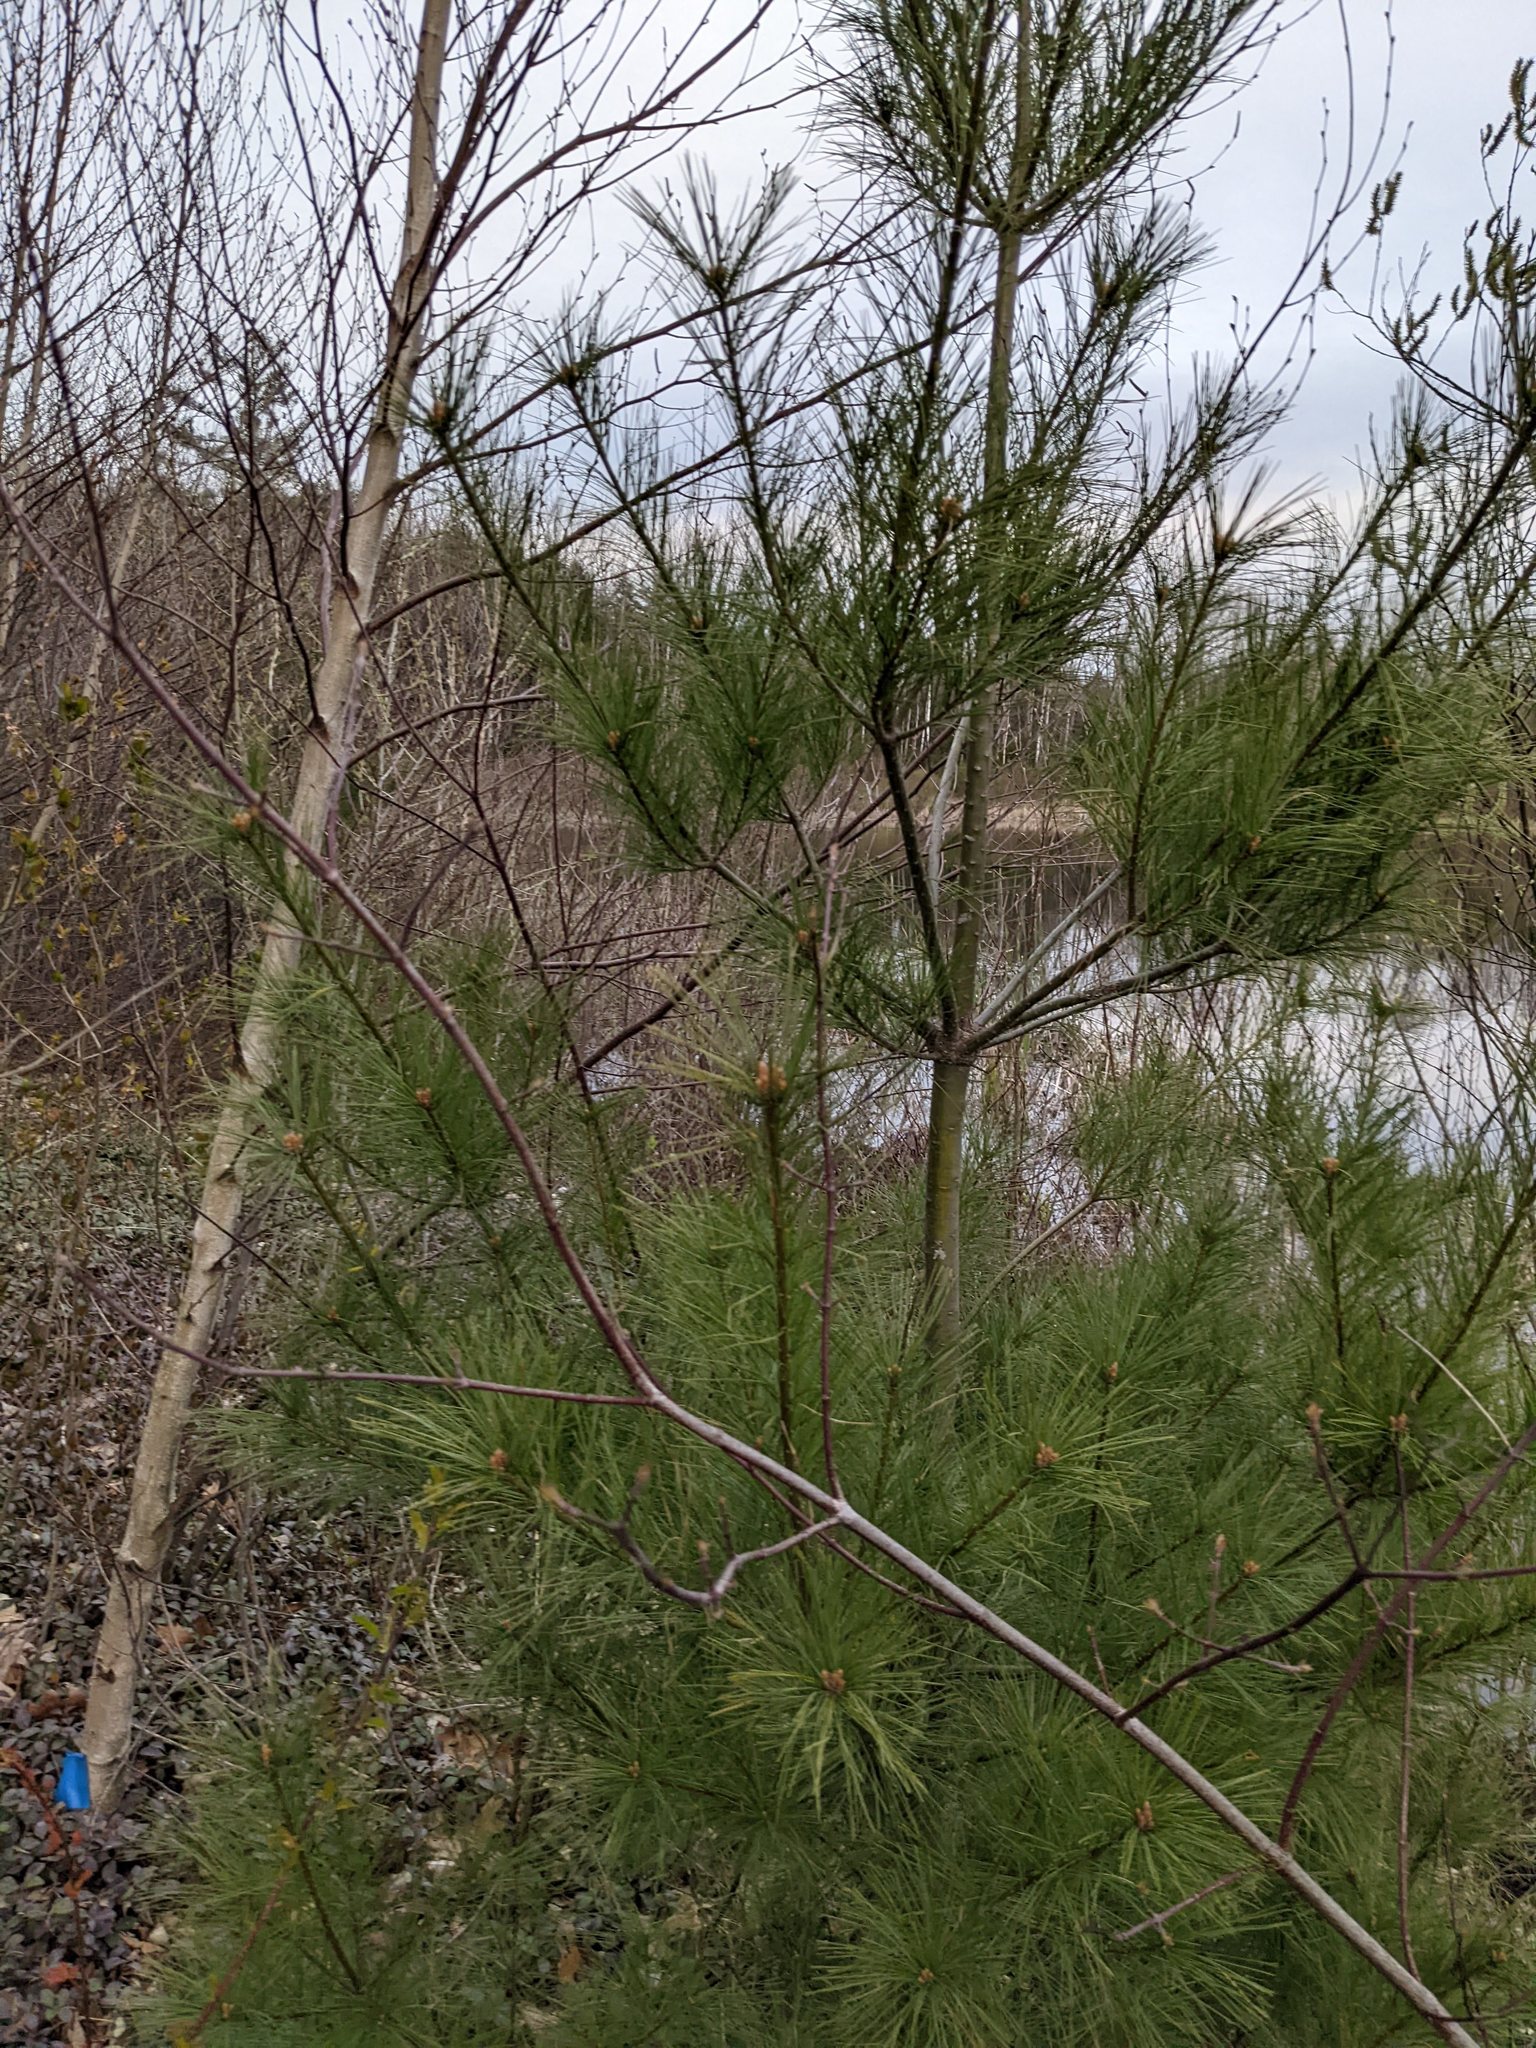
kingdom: Plantae
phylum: Tracheophyta
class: Pinopsida
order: Pinales
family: Pinaceae
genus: Pinus
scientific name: Pinus strobus
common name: Weymouth pine
